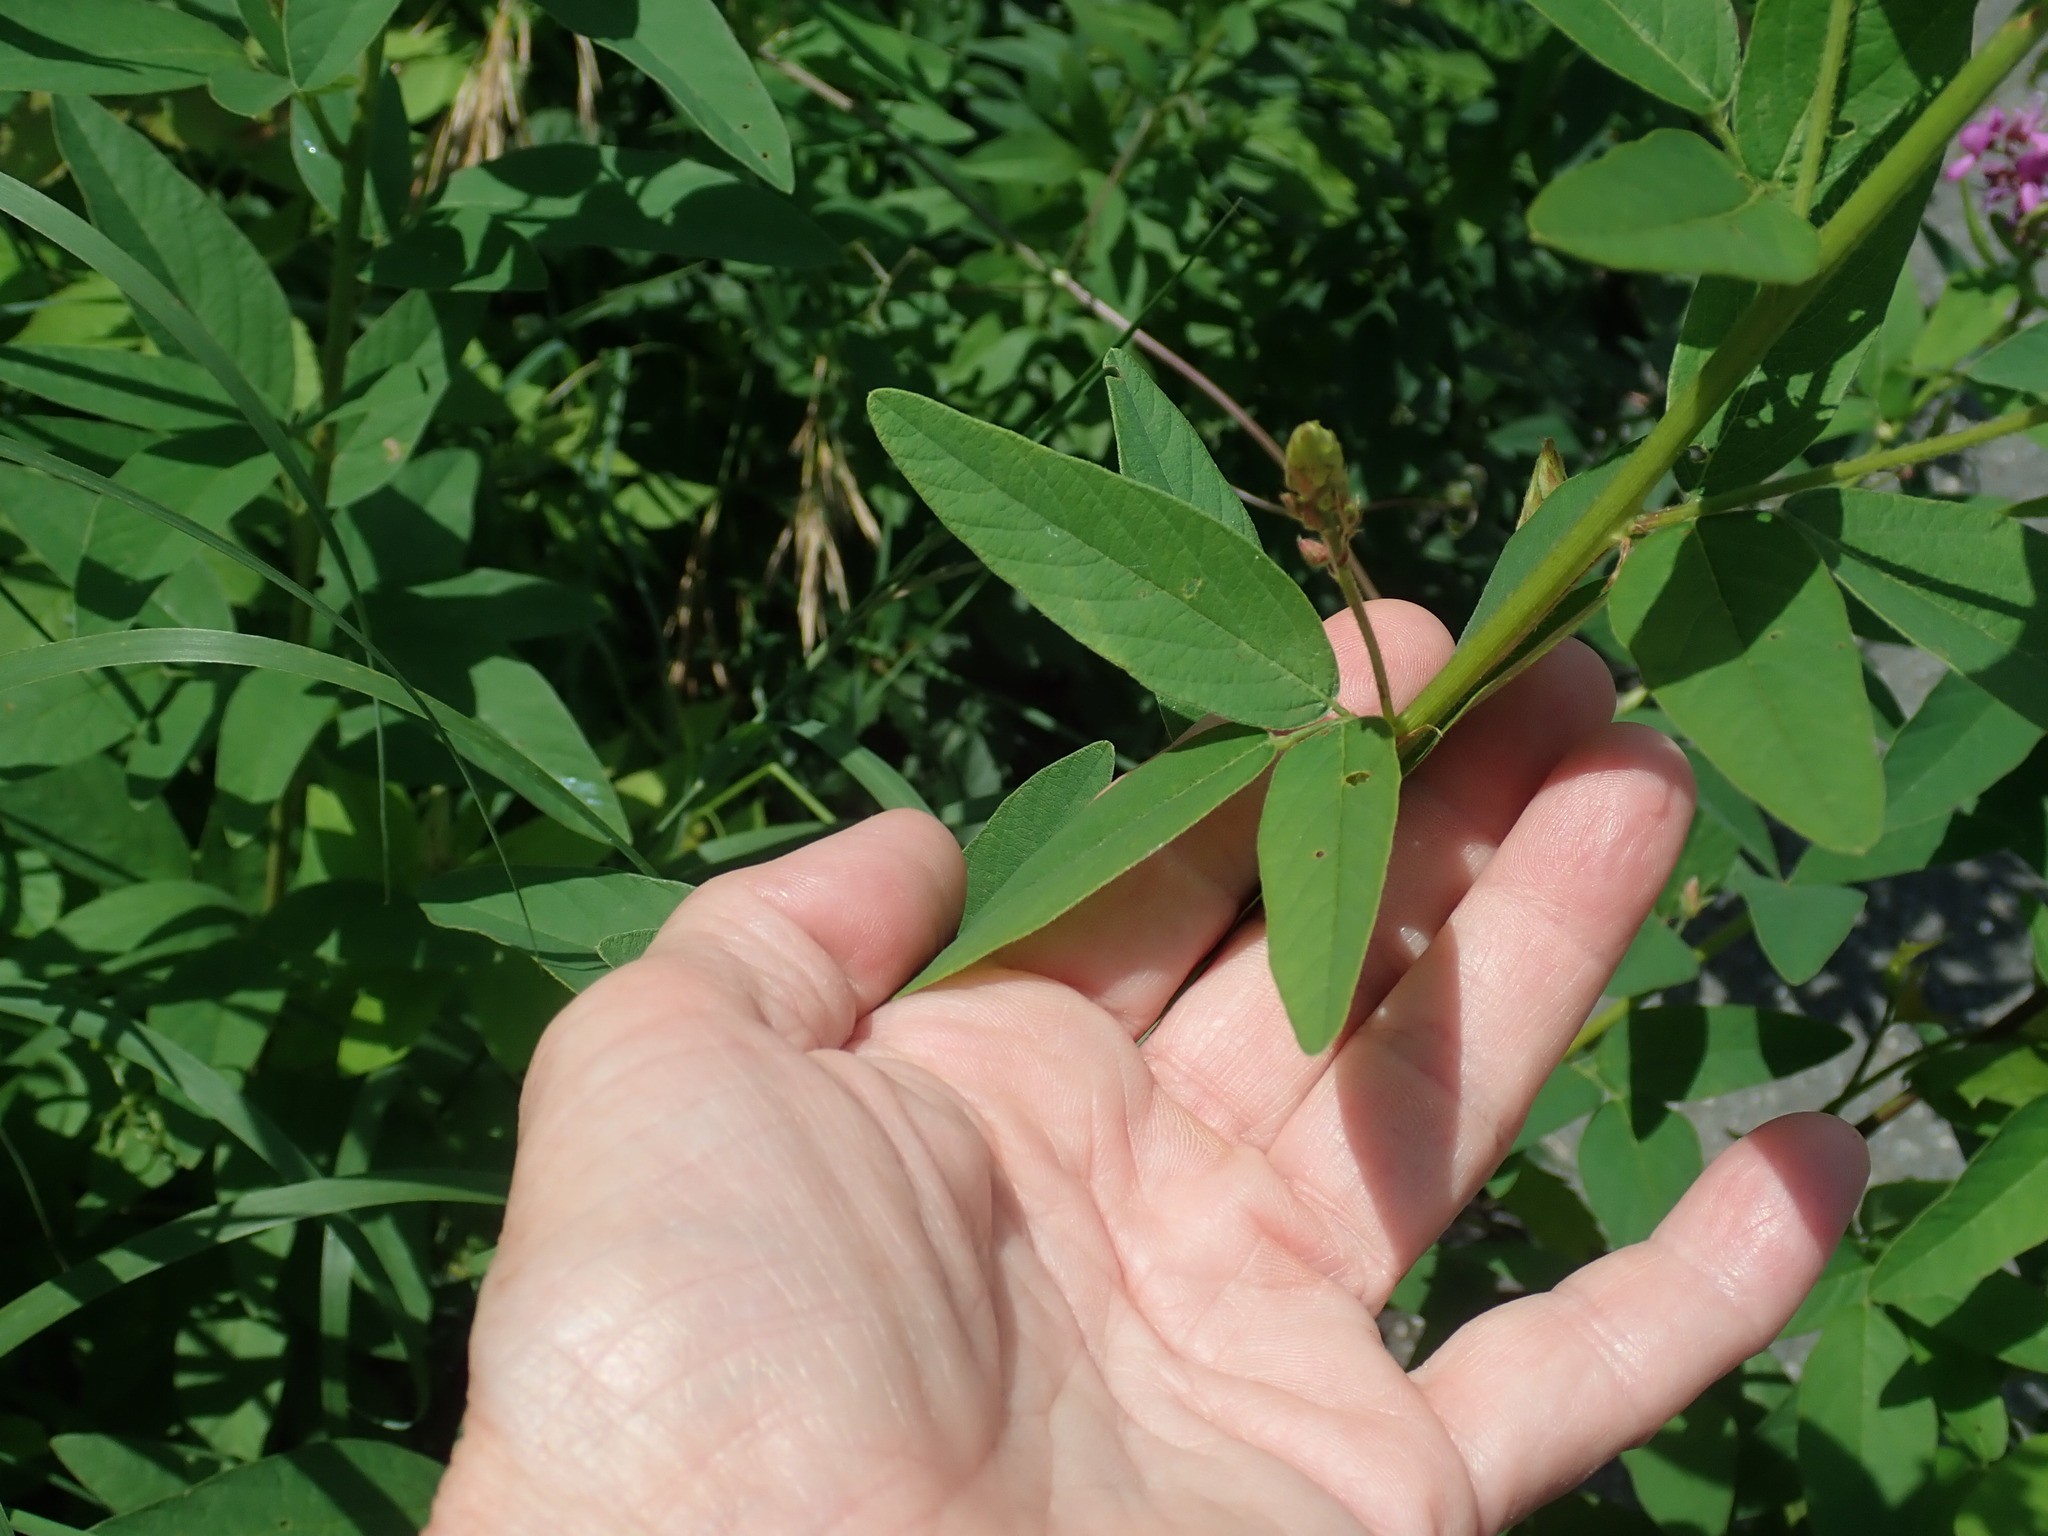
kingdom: Plantae
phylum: Tracheophyta
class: Magnoliopsida
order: Fabales
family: Fabaceae
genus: Desmodium
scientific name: Desmodium canadense
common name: Canada tick-trefoil
